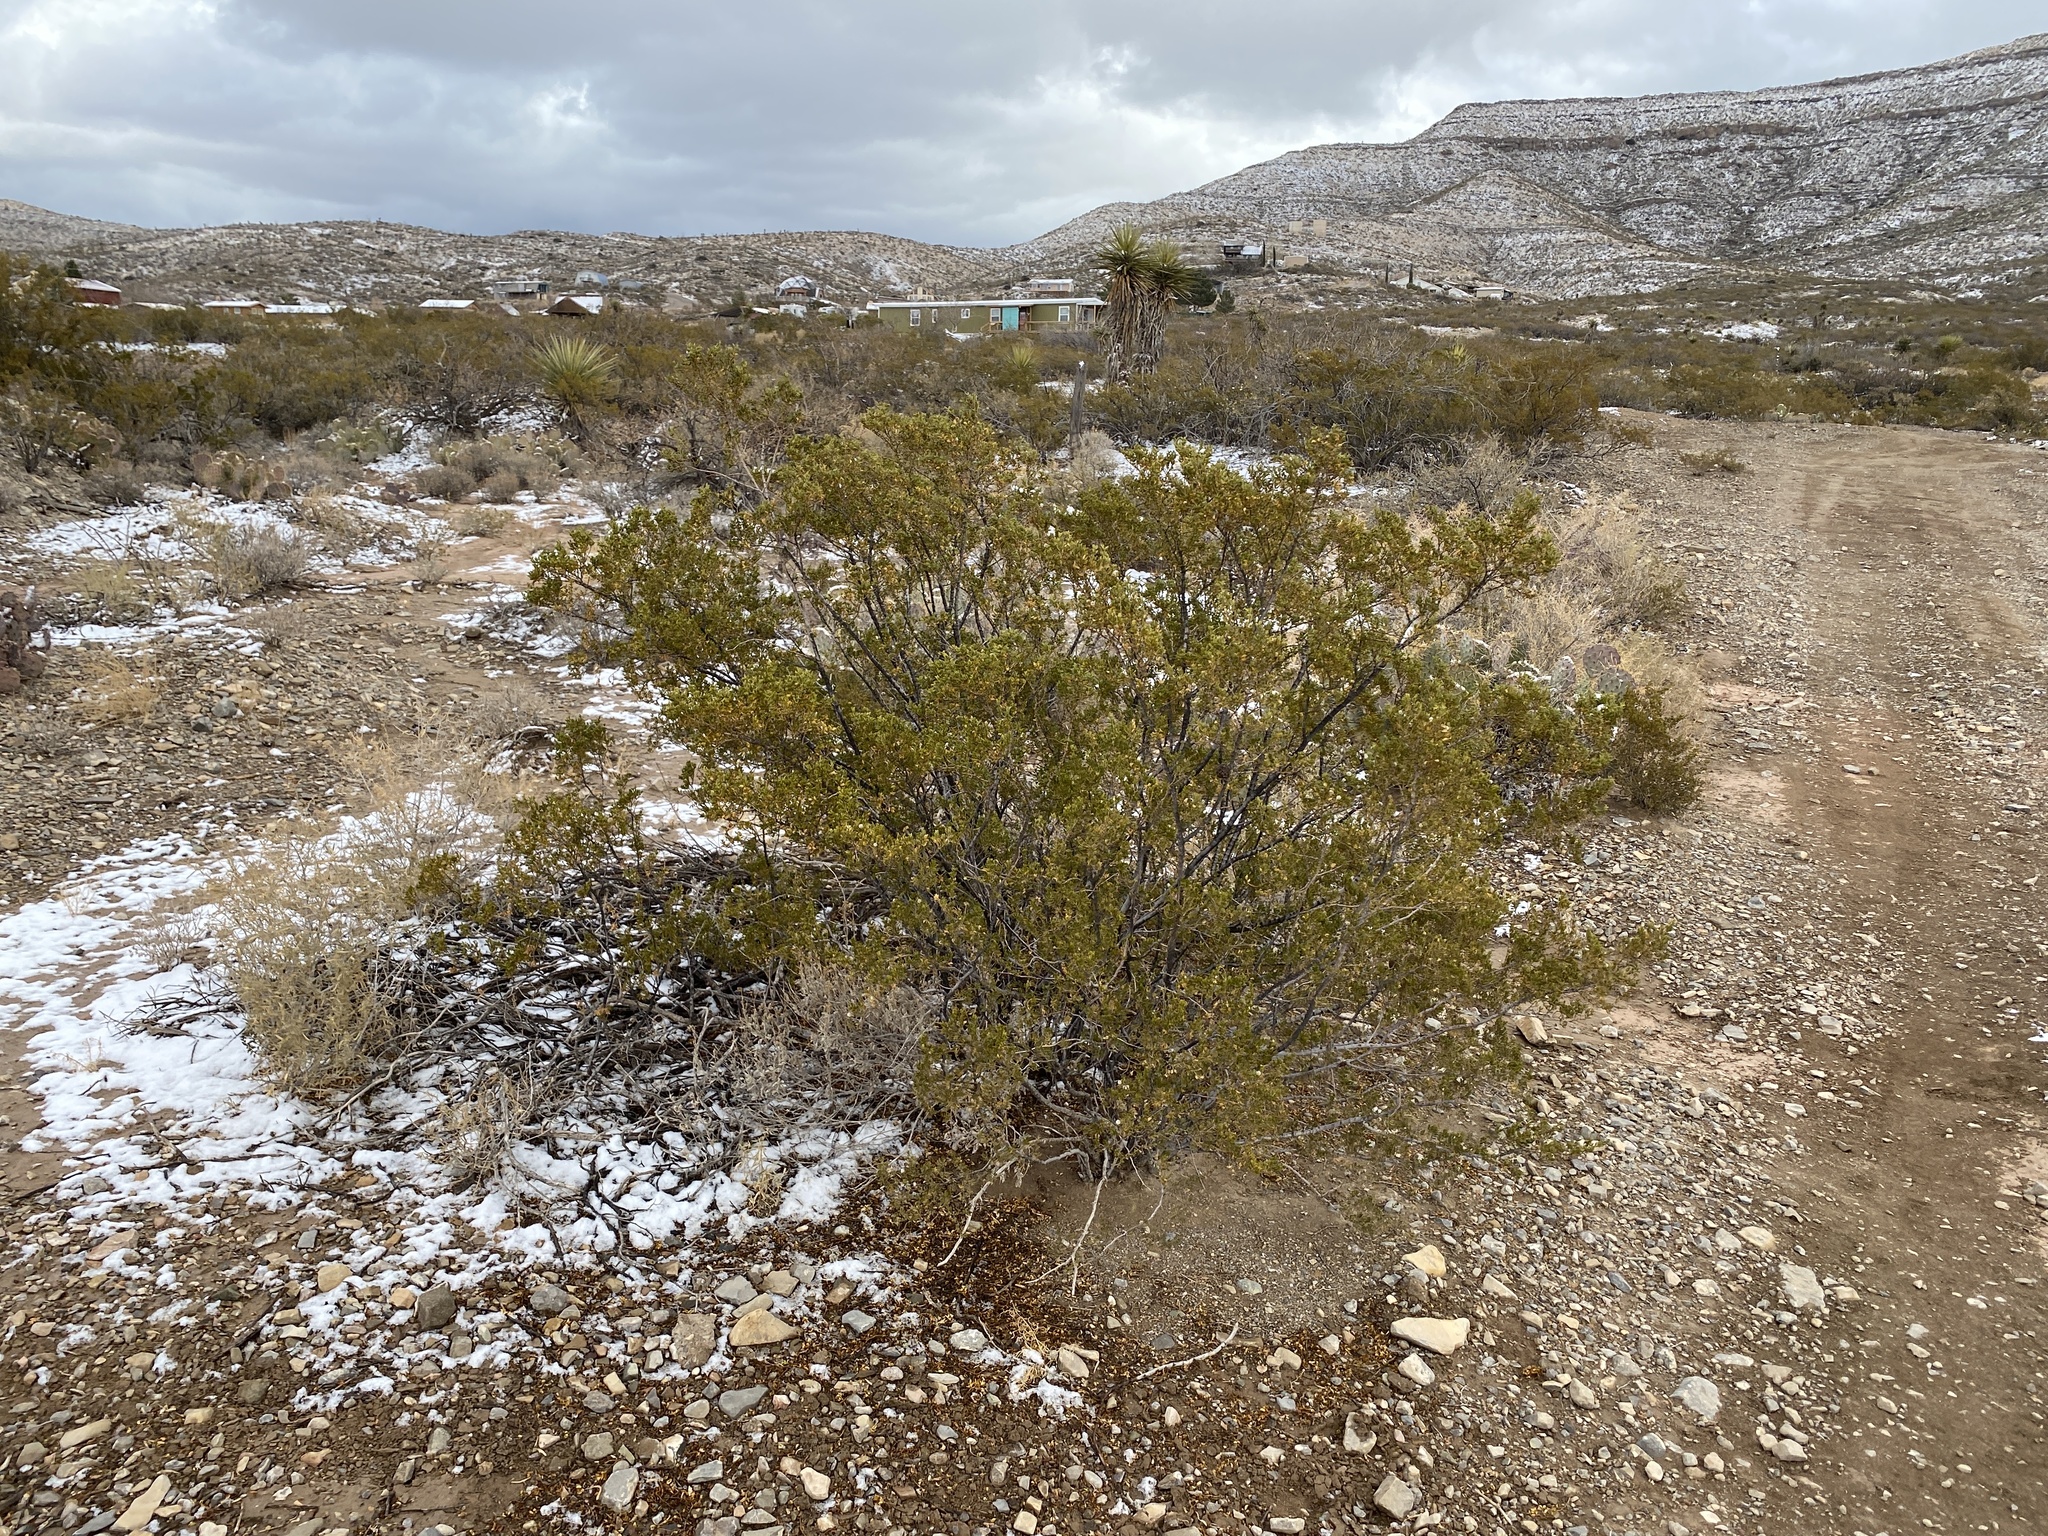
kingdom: Plantae
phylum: Tracheophyta
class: Magnoliopsida
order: Zygophyllales
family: Zygophyllaceae
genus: Larrea
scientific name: Larrea tridentata
